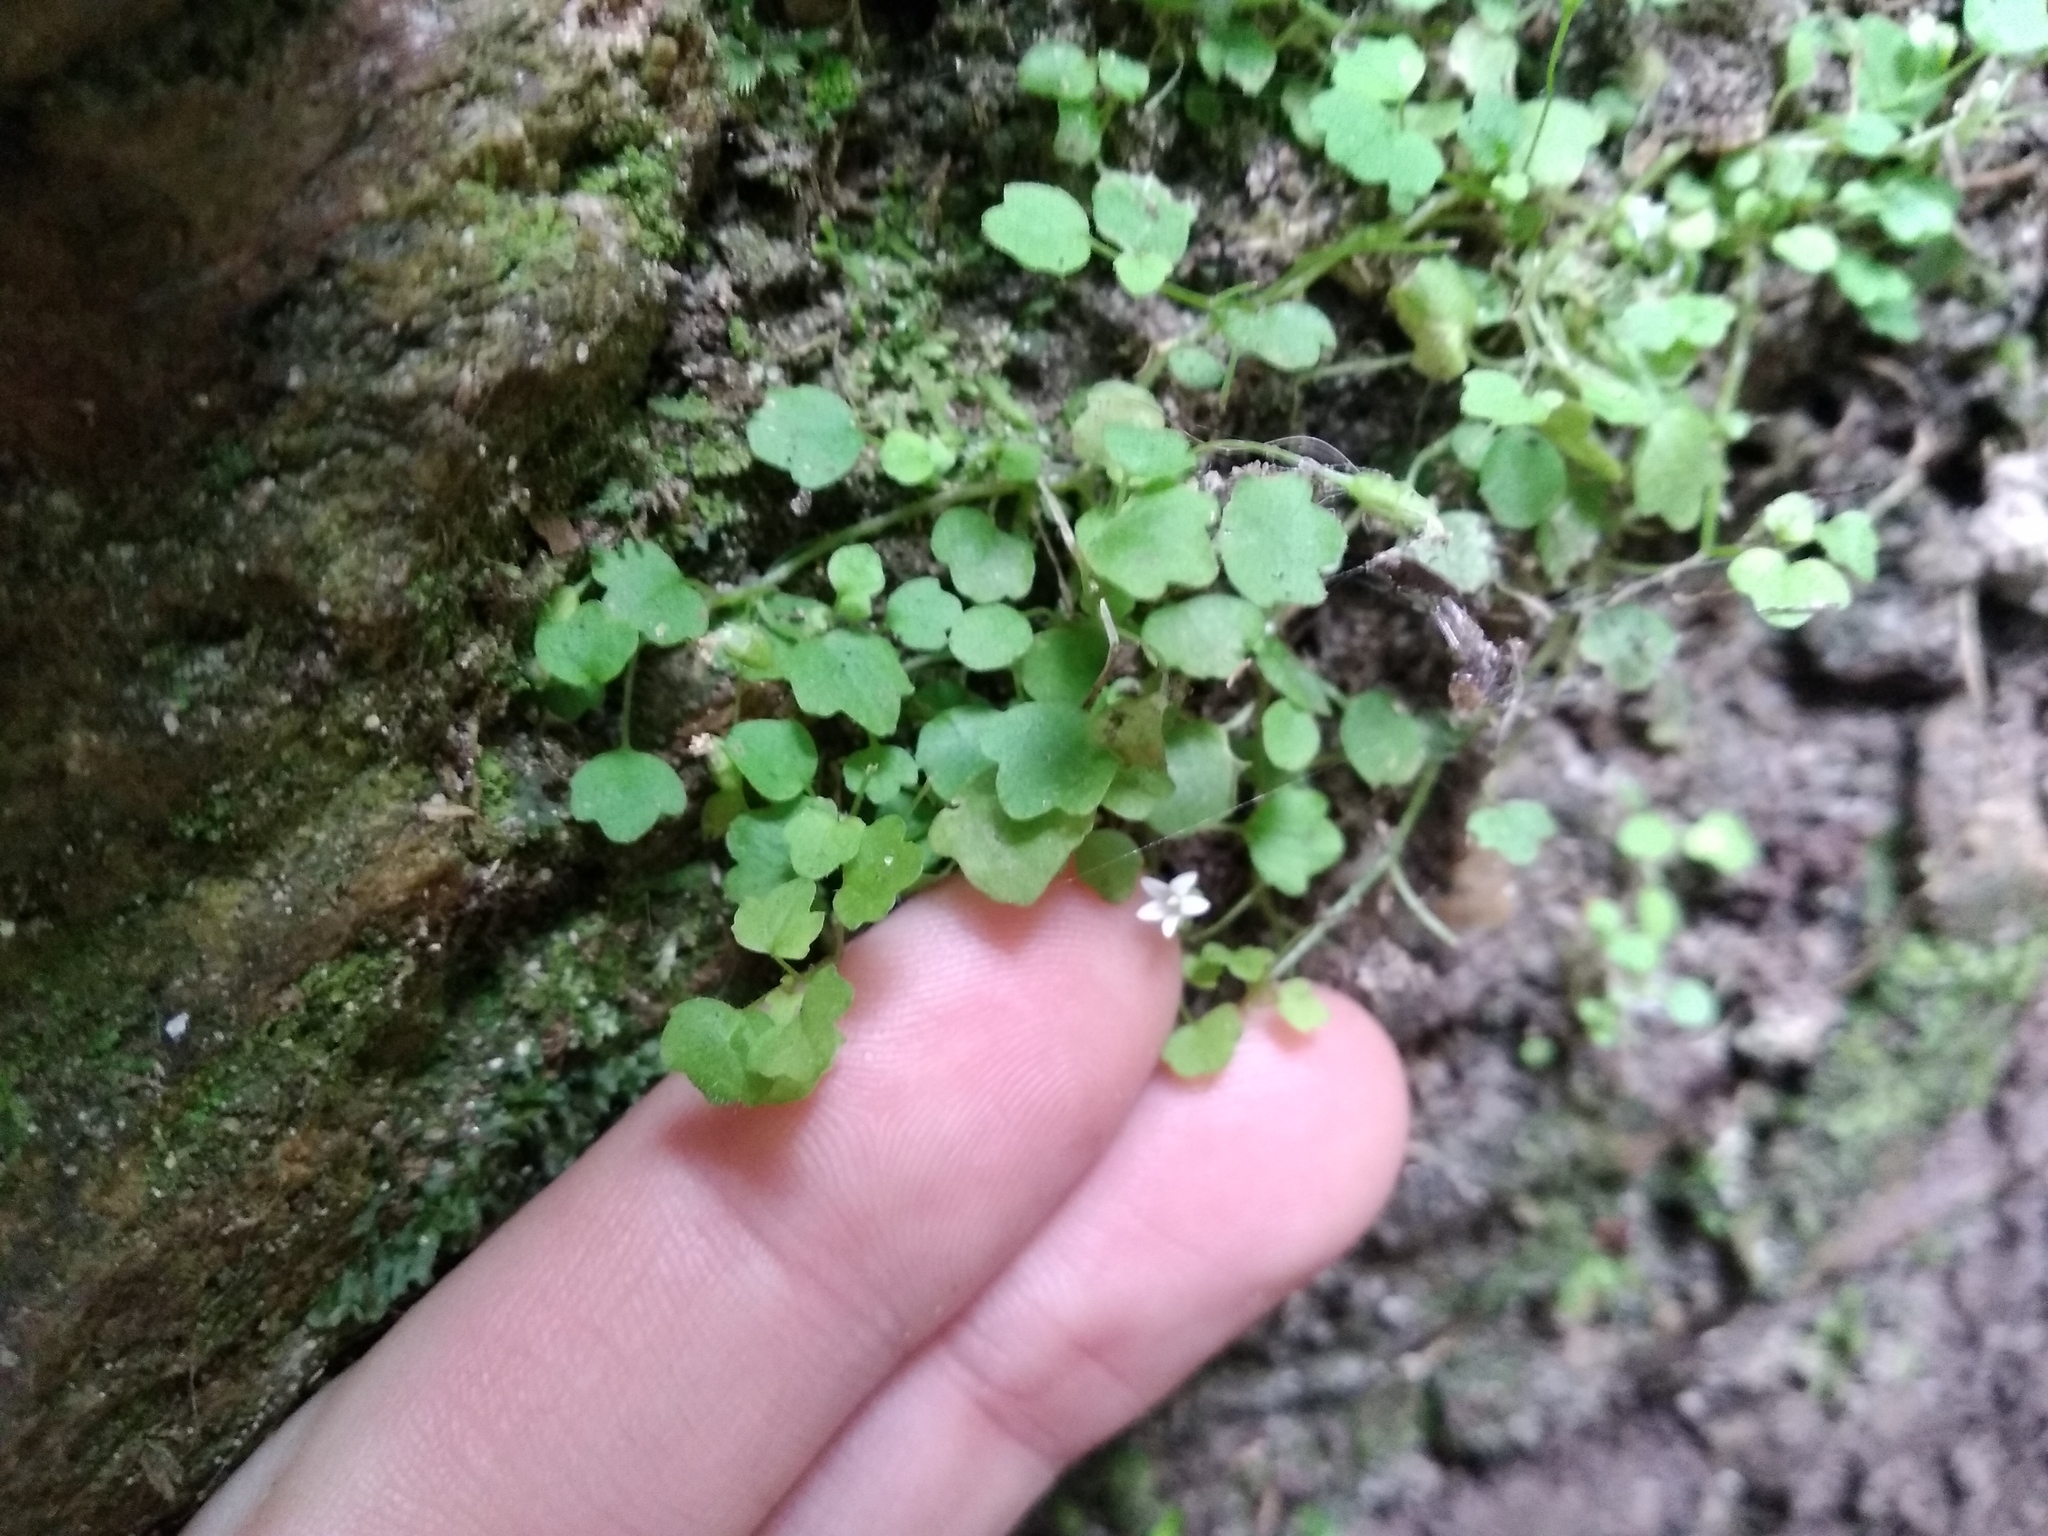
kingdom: Plantae
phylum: Tracheophyta
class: Magnoliopsida
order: Asterales
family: Campanulaceae
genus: Wimmerella
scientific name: Wimmerella pygmaea
